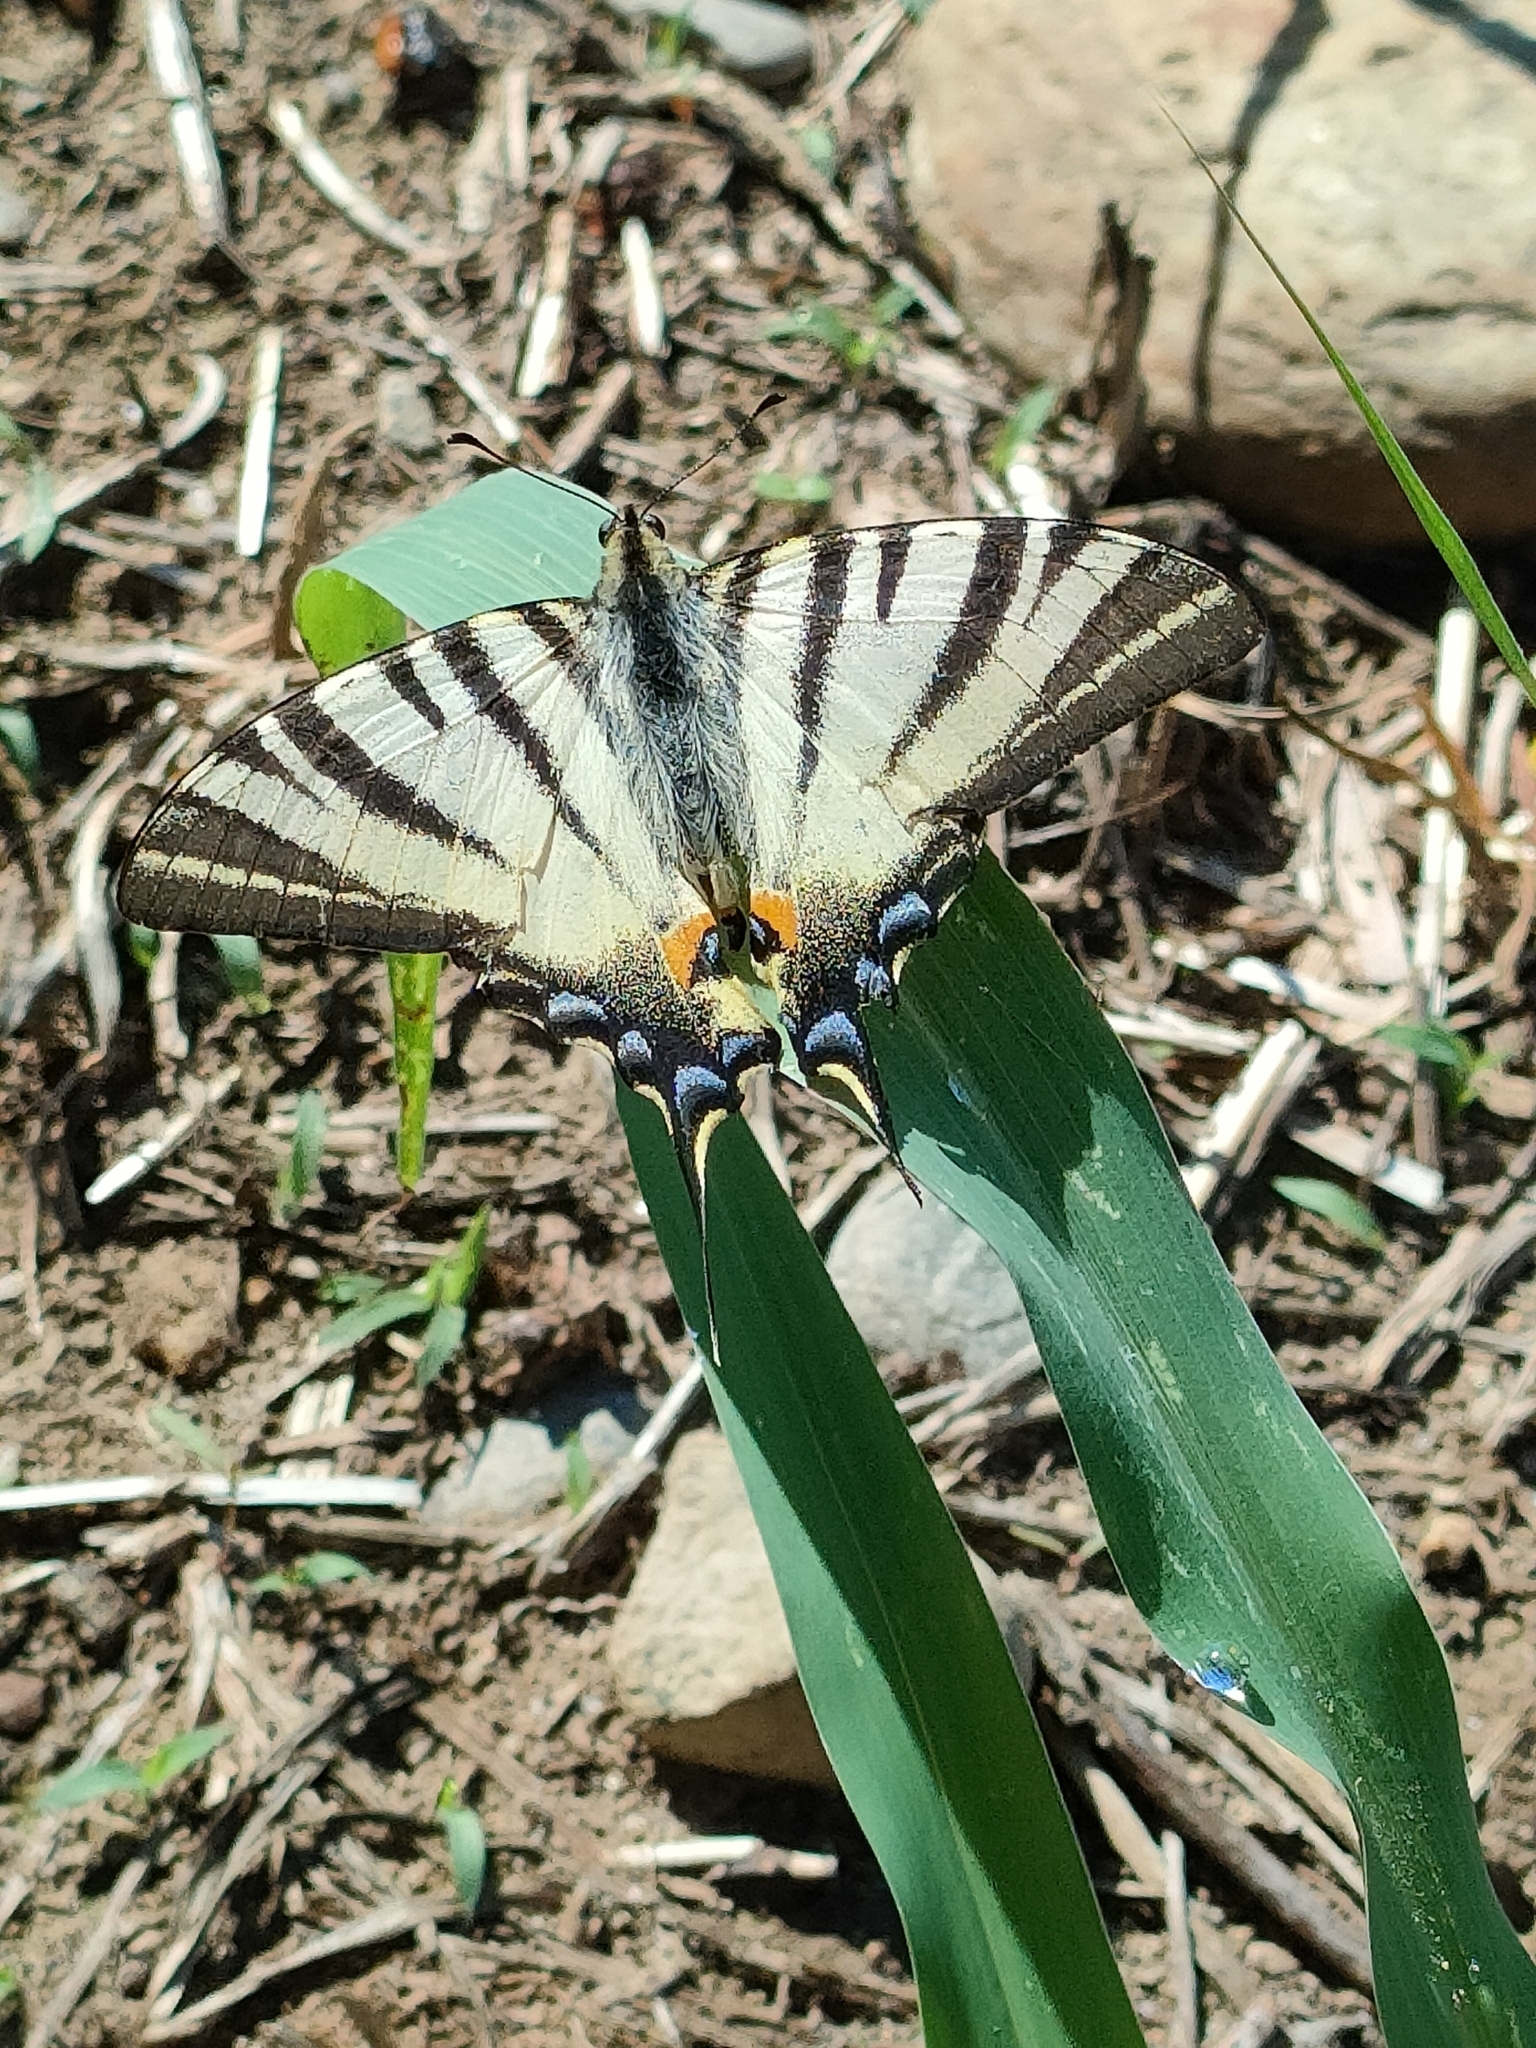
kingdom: Animalia
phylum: Arthropoda
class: Insecta
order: Lepidoptera
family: Papilionidae
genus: Iphiclides
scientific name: Iphiclides podalirius
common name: Scarce swallowtail
